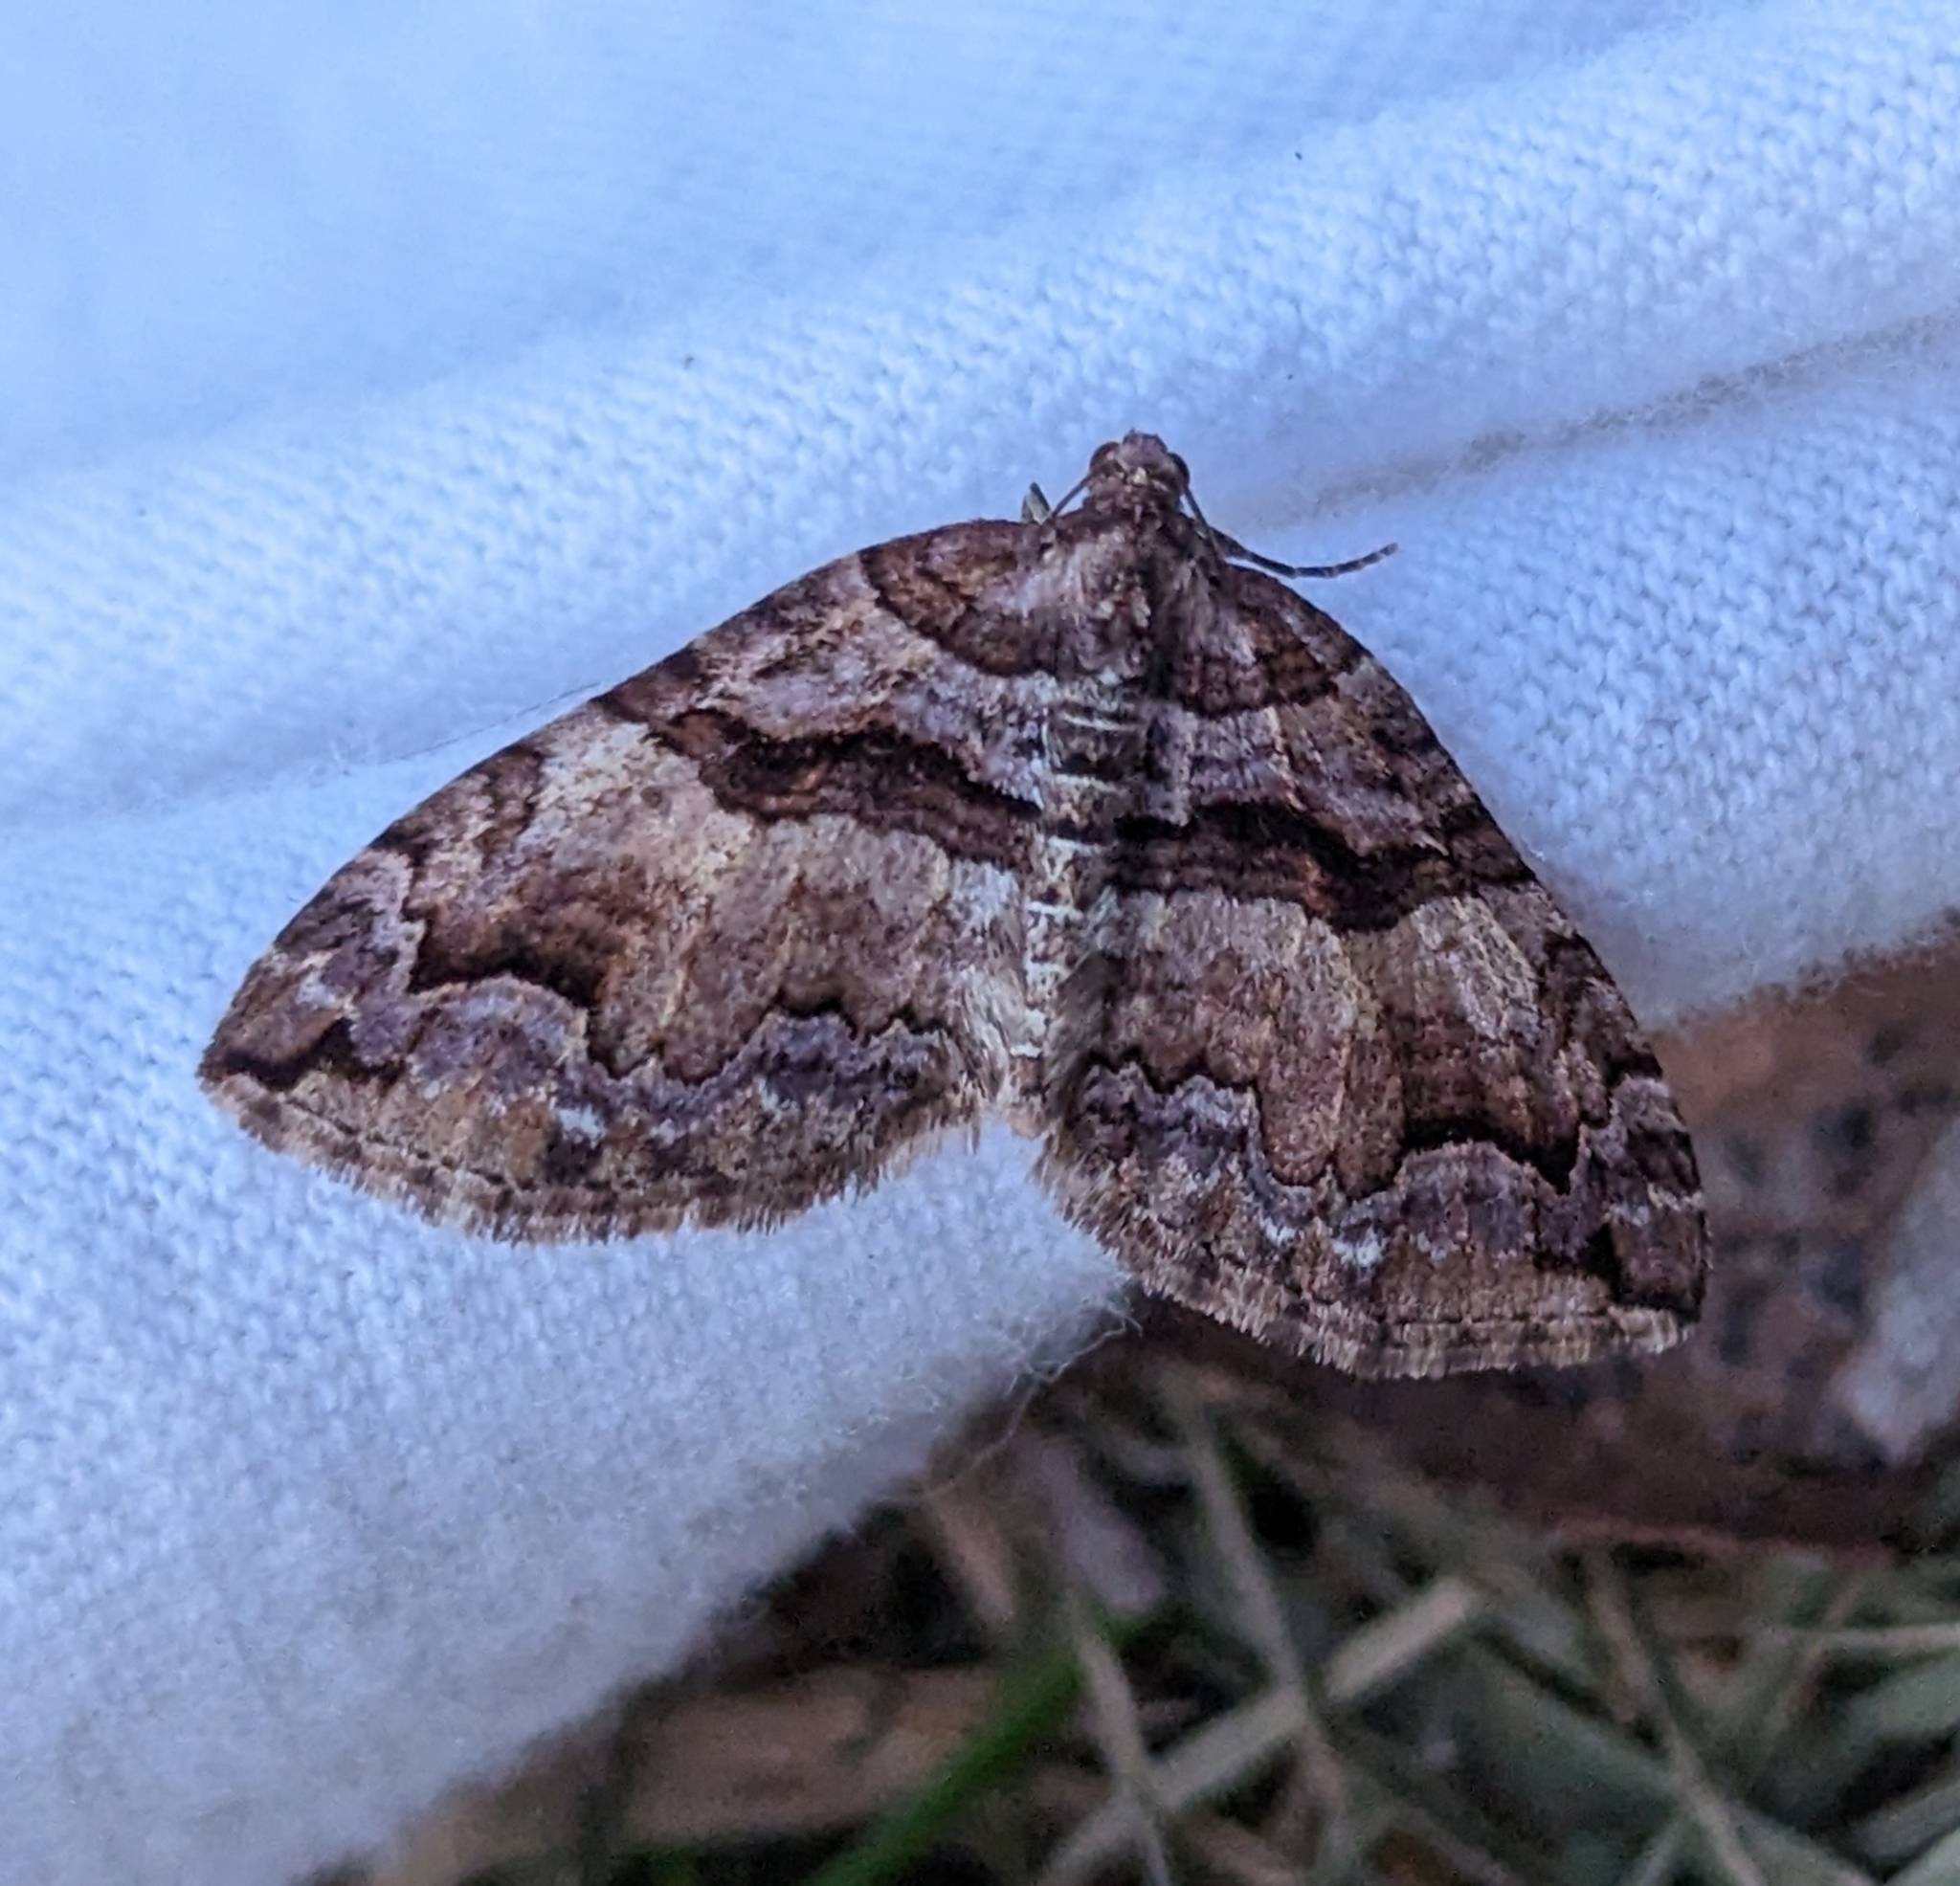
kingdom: Animalia
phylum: Arthropoda
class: Insecta
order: Lepidoptera
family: Geometridae
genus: Anticlea
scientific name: Anticlea vasiliata
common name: Variable carpet
